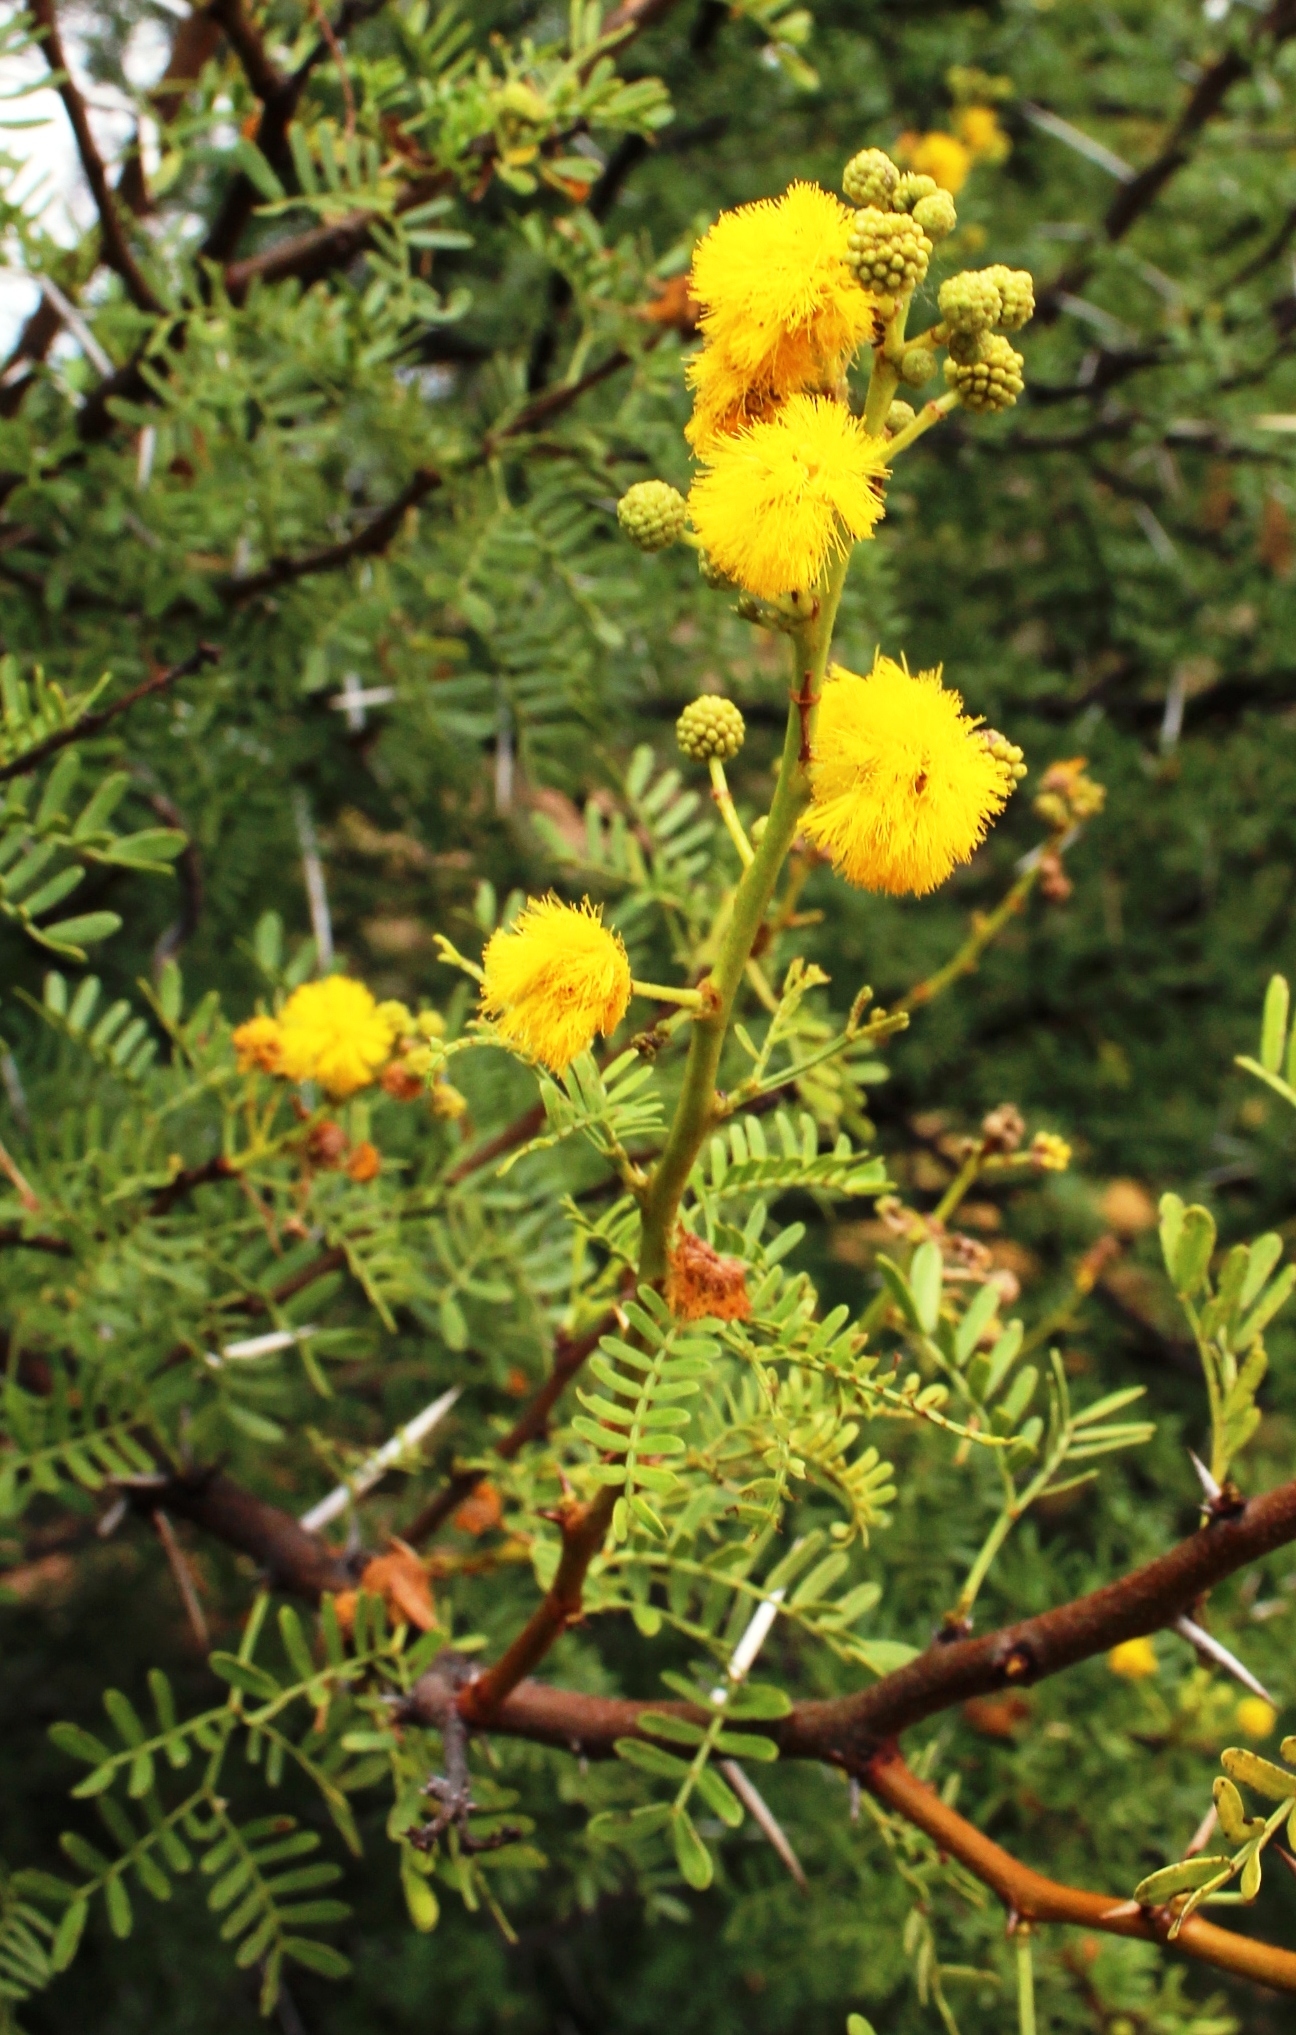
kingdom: Plantae
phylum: Tracheophyta
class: Magnoliopsida
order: Fabales
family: Fabaceae
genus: Vachellia
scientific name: Vachellia karroo
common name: Sweet thorn
